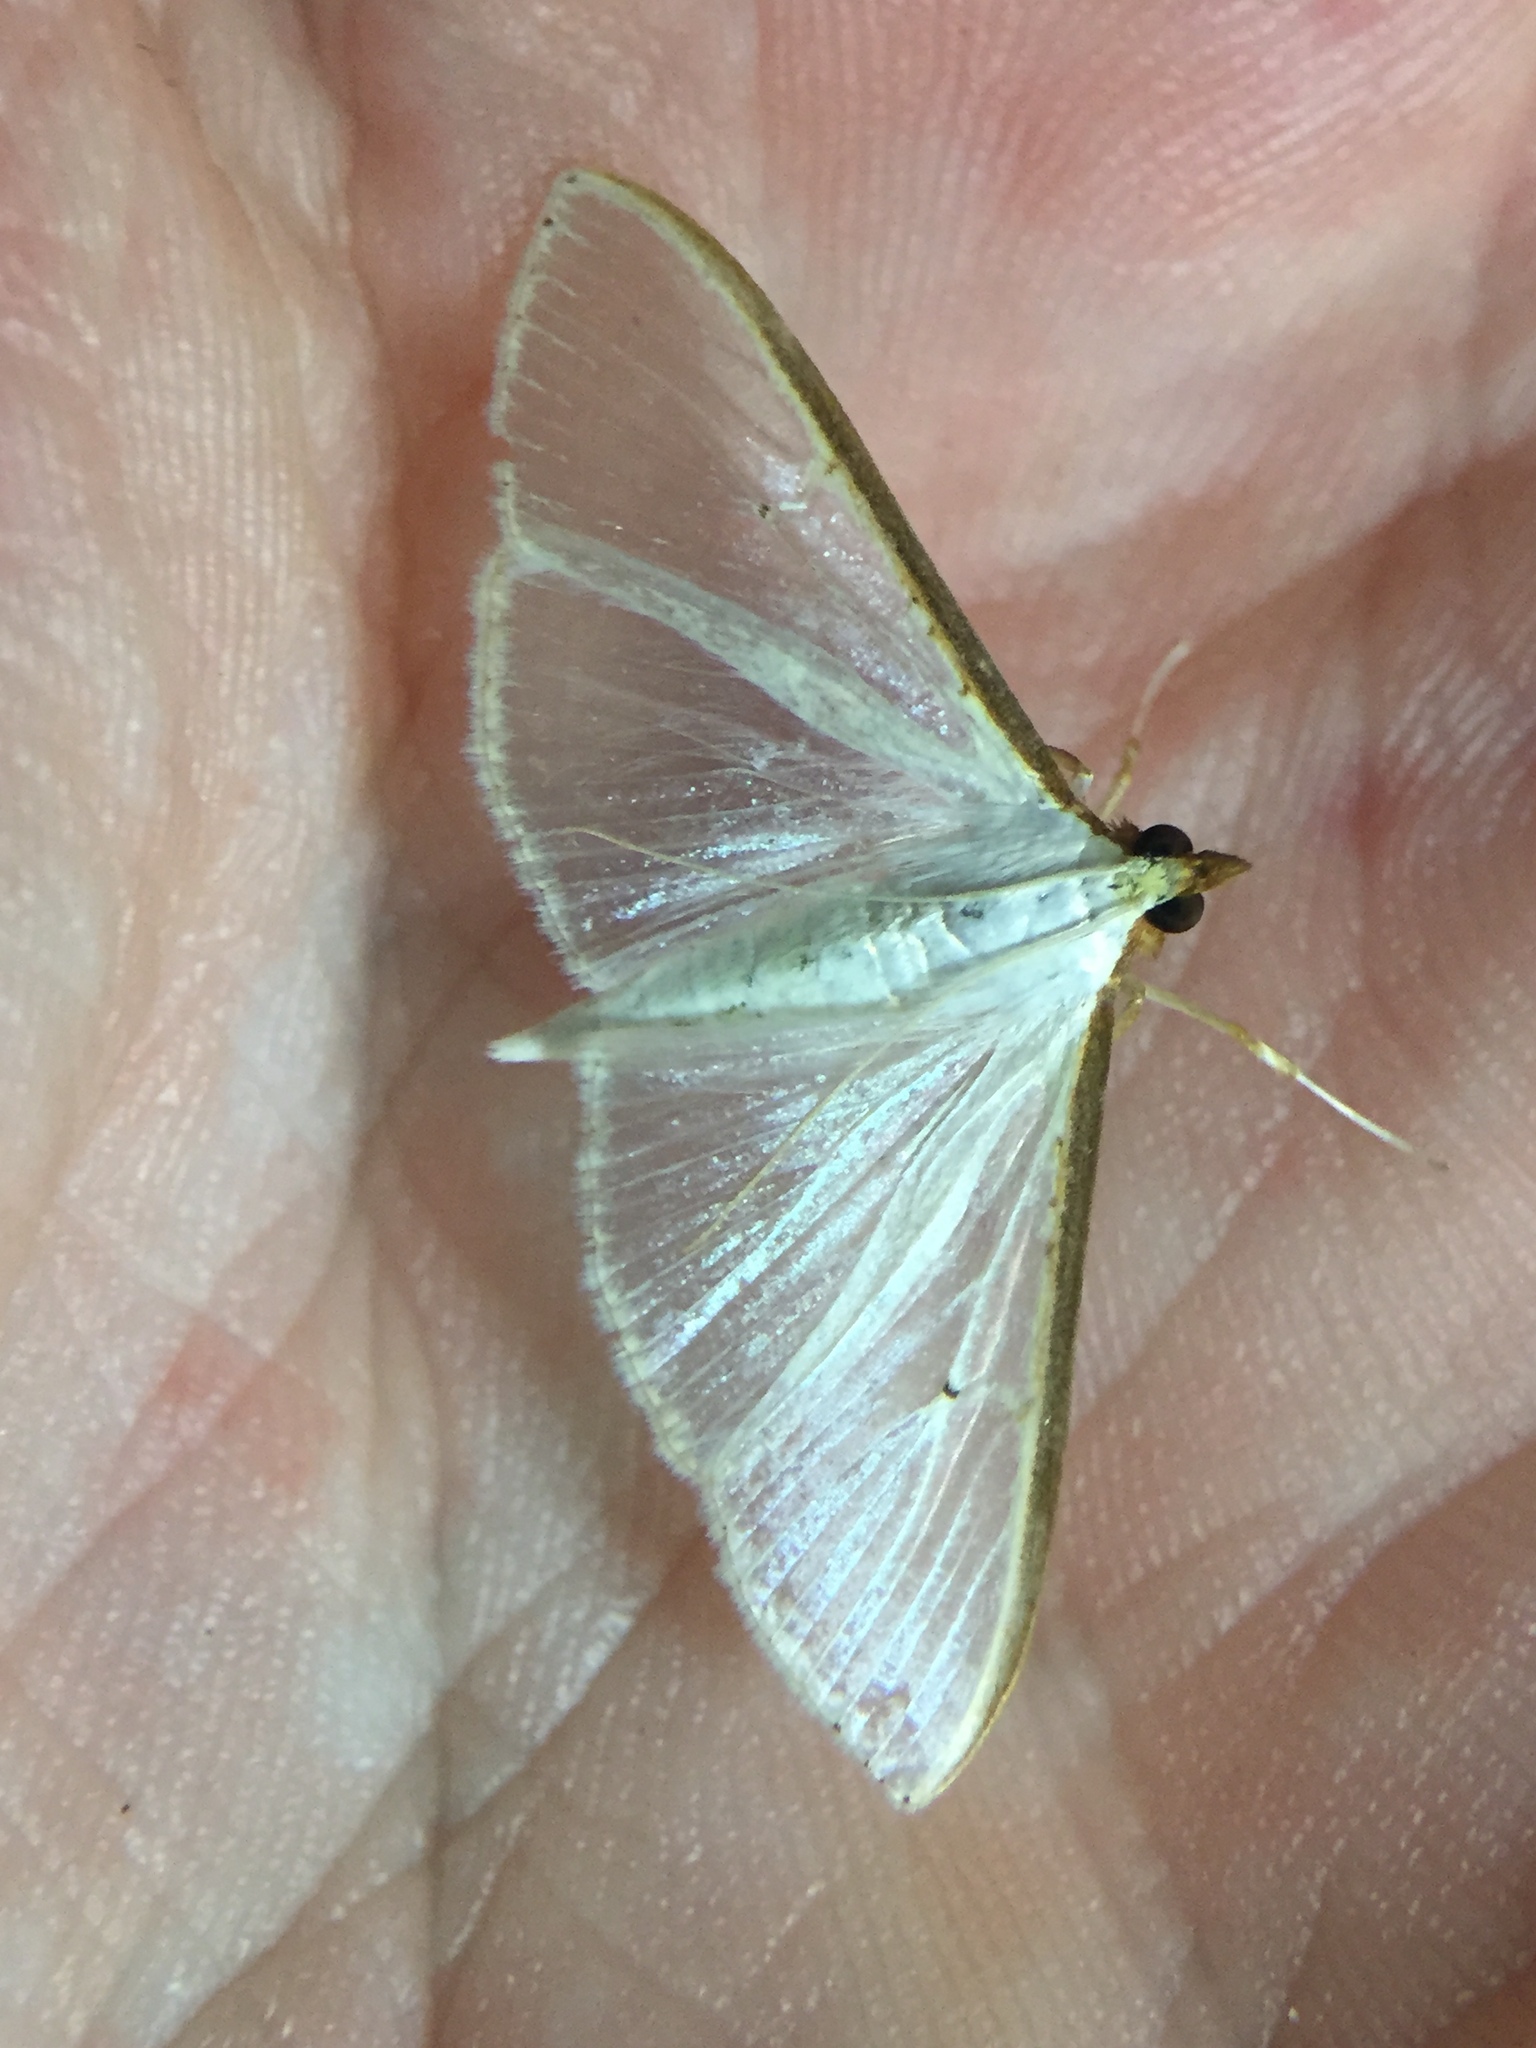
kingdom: Animalia
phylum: Arthropoda
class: Insecta
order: Lepidoptera
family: Crambidae
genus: Palpita
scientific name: Palpita
